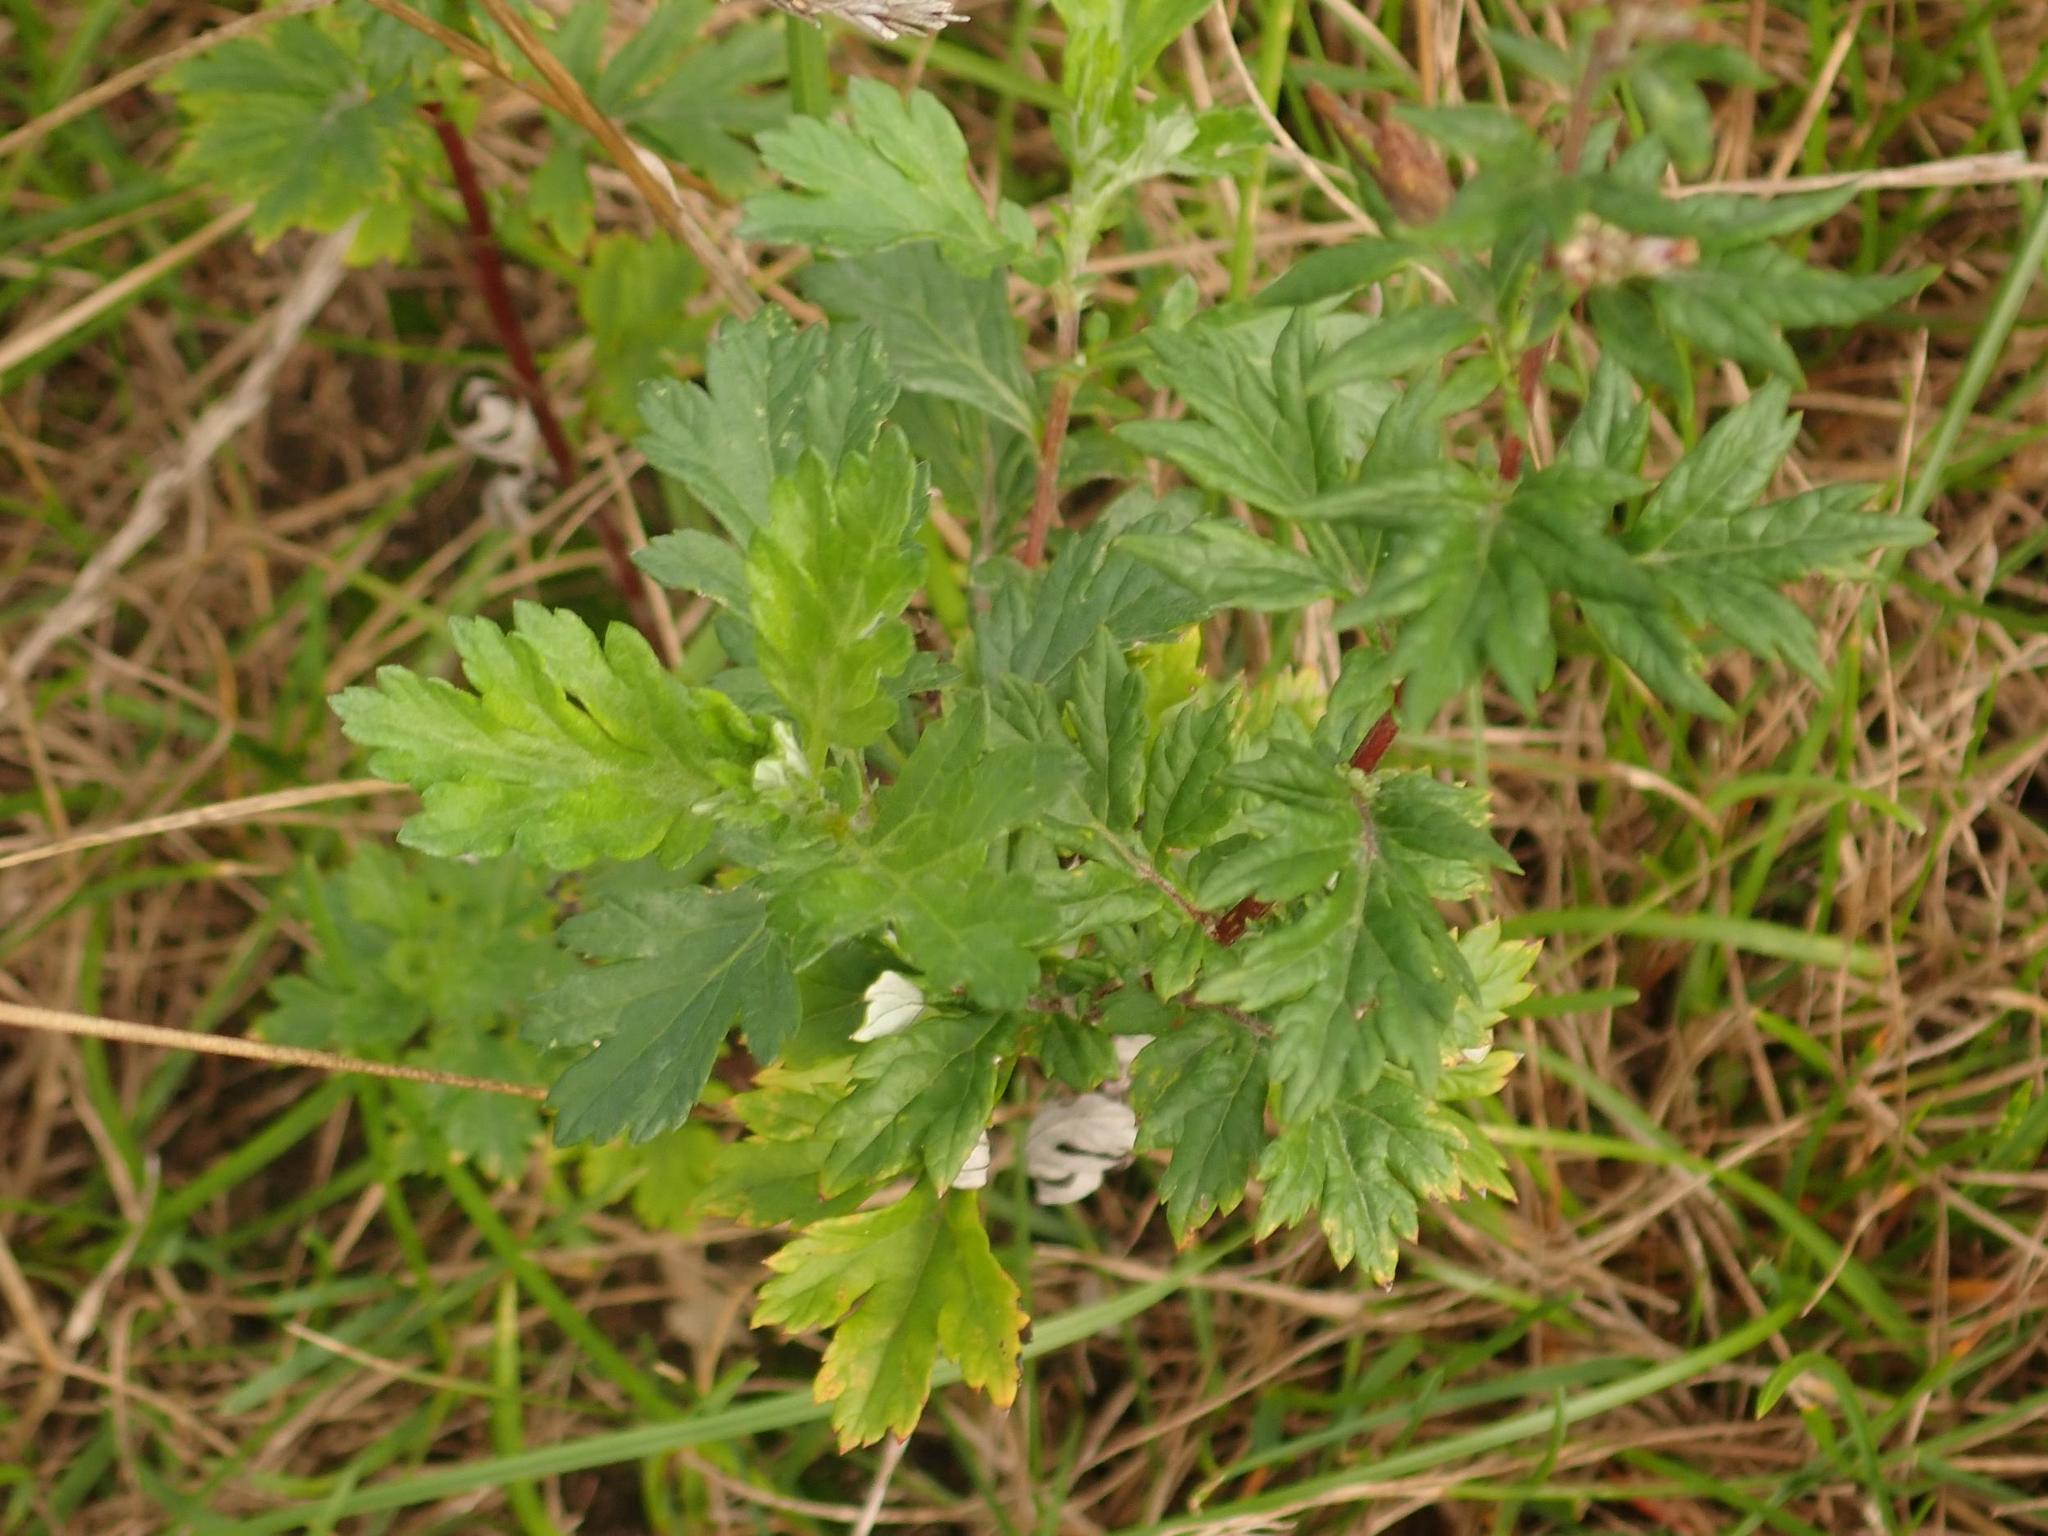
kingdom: Plantae
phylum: Tracheophyta
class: Magnoliopsida
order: Asterales
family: Asteraceae
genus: Artemisia
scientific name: Artemisia vulgaris
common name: Mugwort
